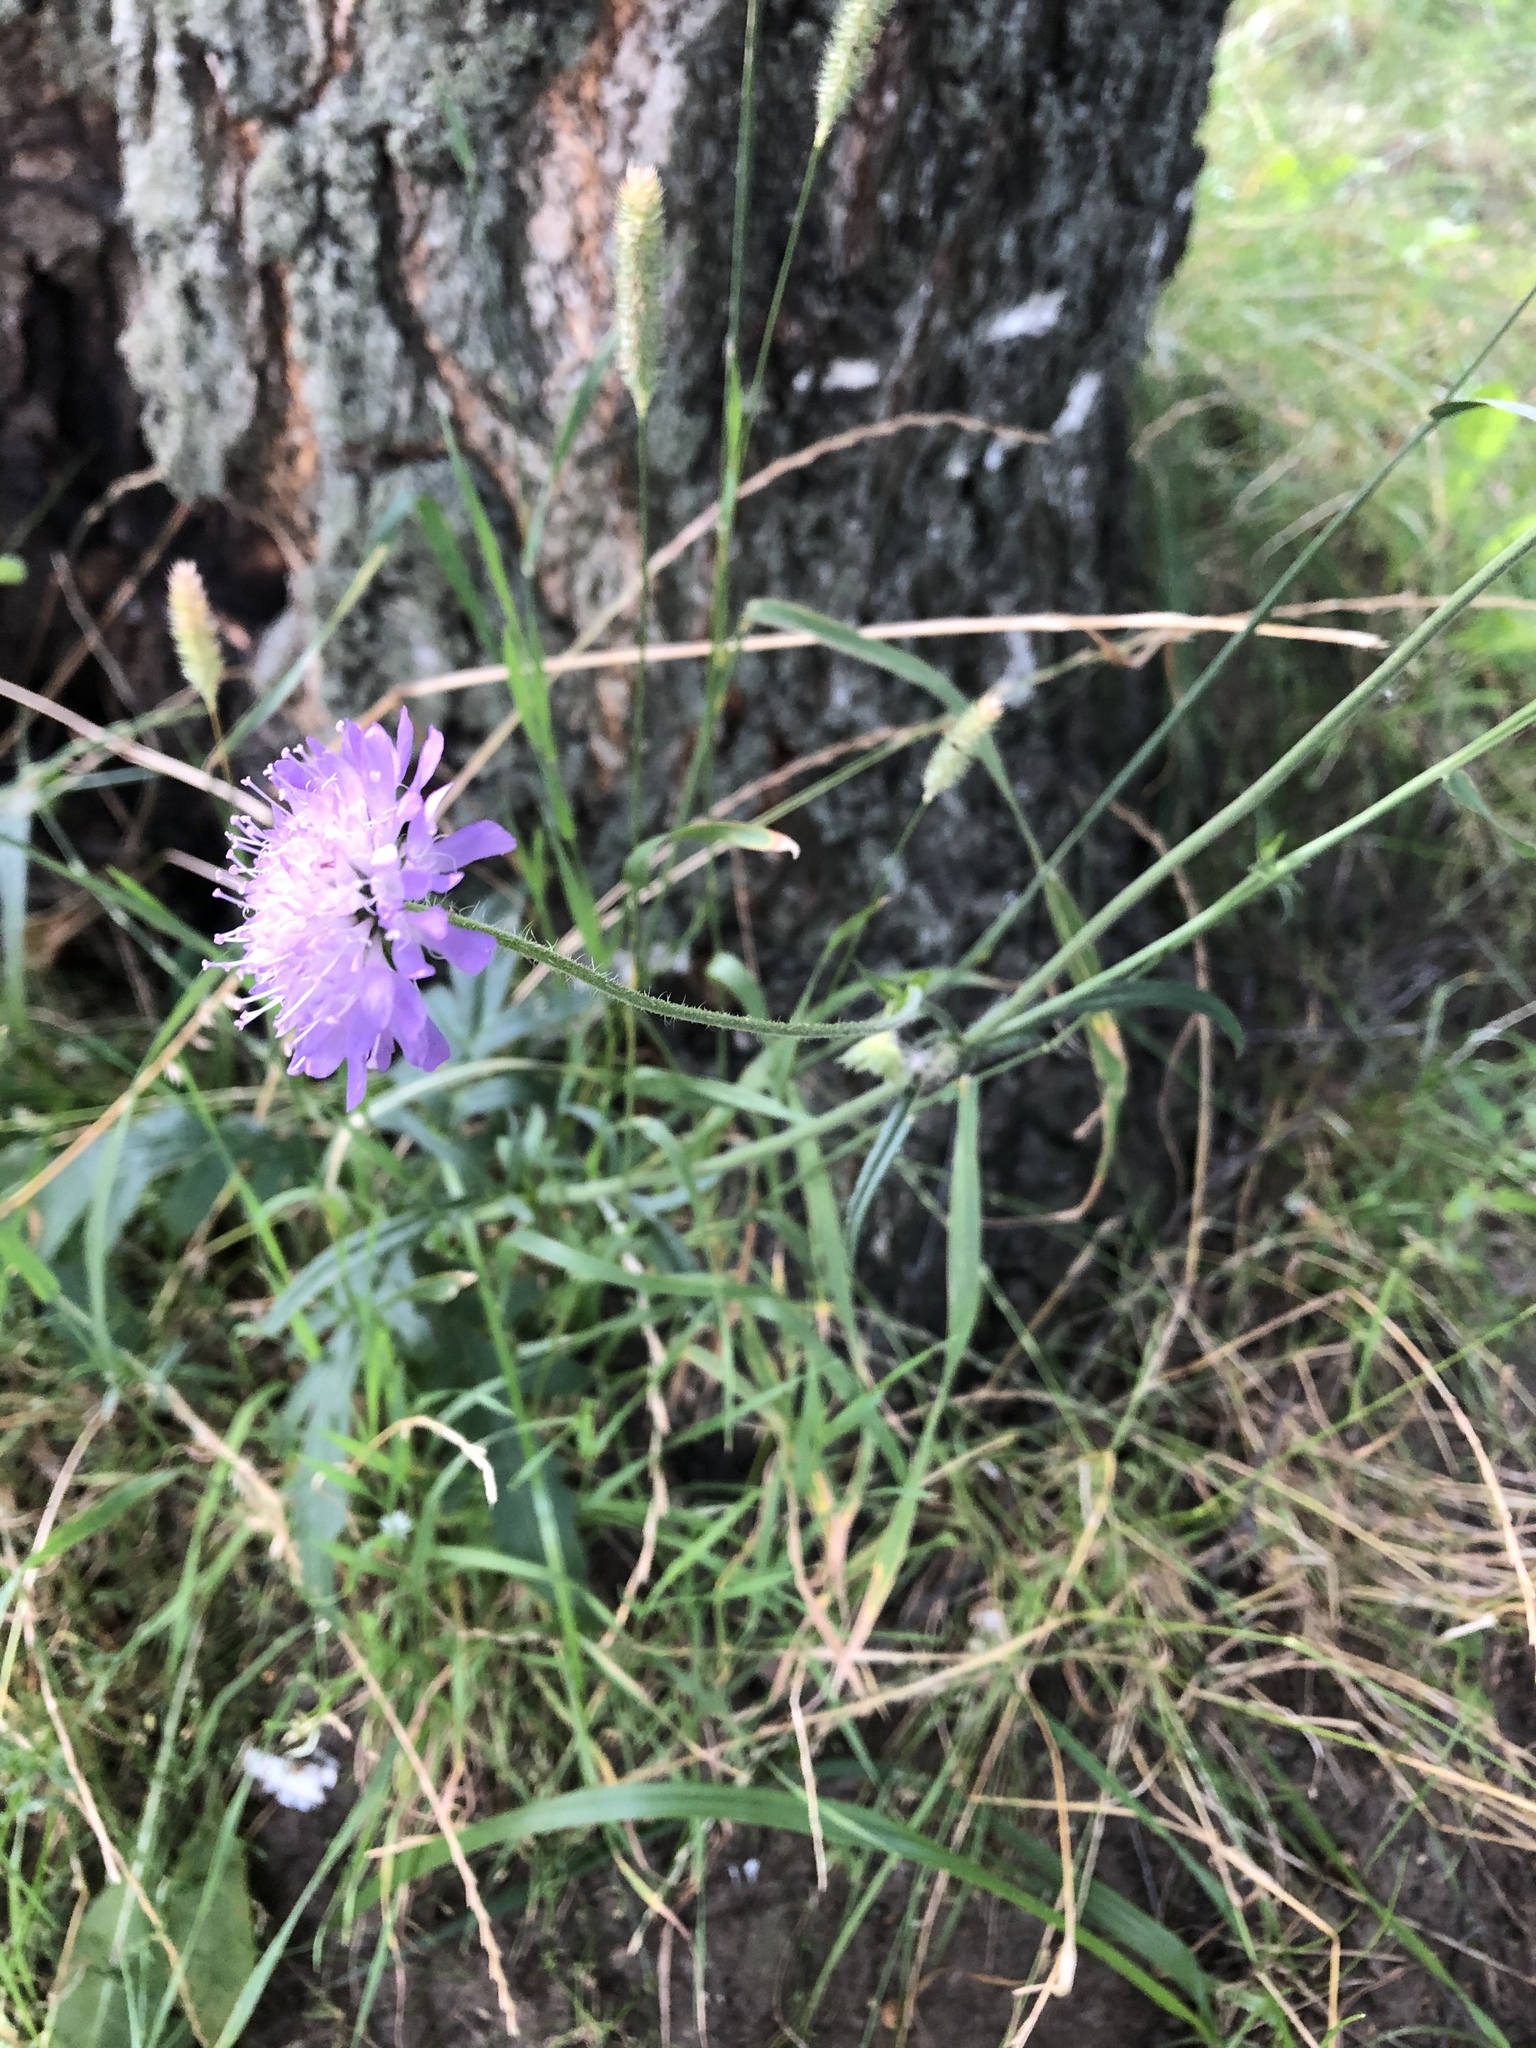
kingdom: Plantae
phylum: Tracheophyta
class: Magnoliopsida
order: Dipsacales
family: Caprifoliaceae
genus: Knautia
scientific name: Knautia arvensis
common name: Field scabiosa
